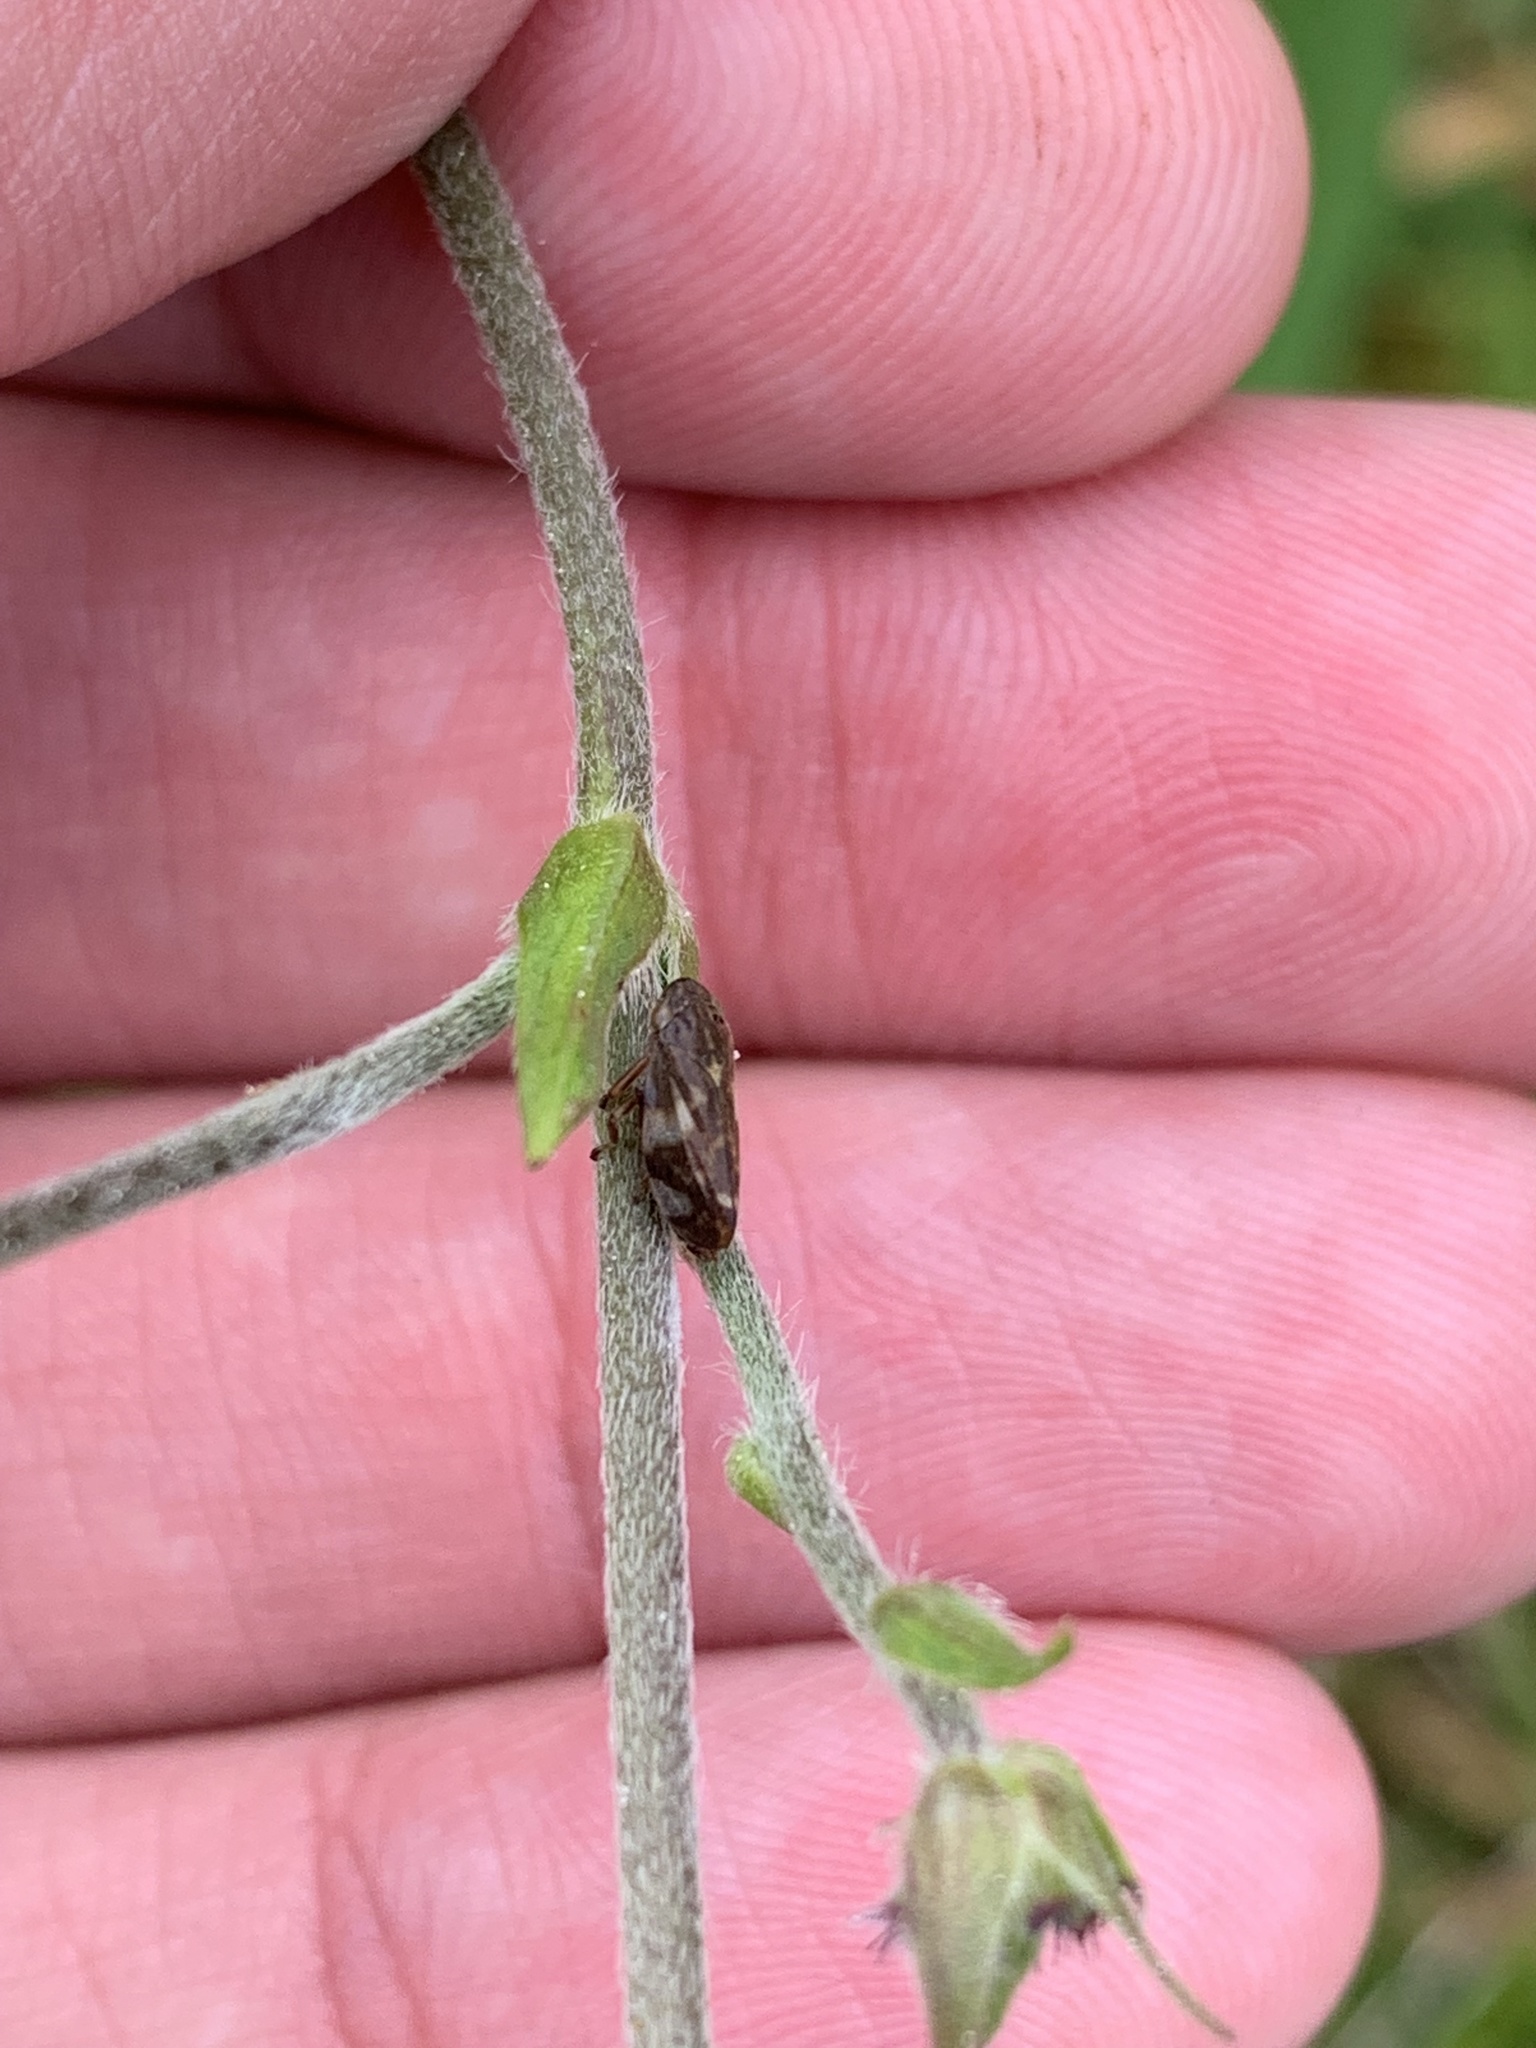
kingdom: Animalia
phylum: Arthropoda
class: Insecta
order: Hemiptera
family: Aphrophoridae
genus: Philaenus
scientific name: Philaenus spumarius
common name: Meadow spittlebug
